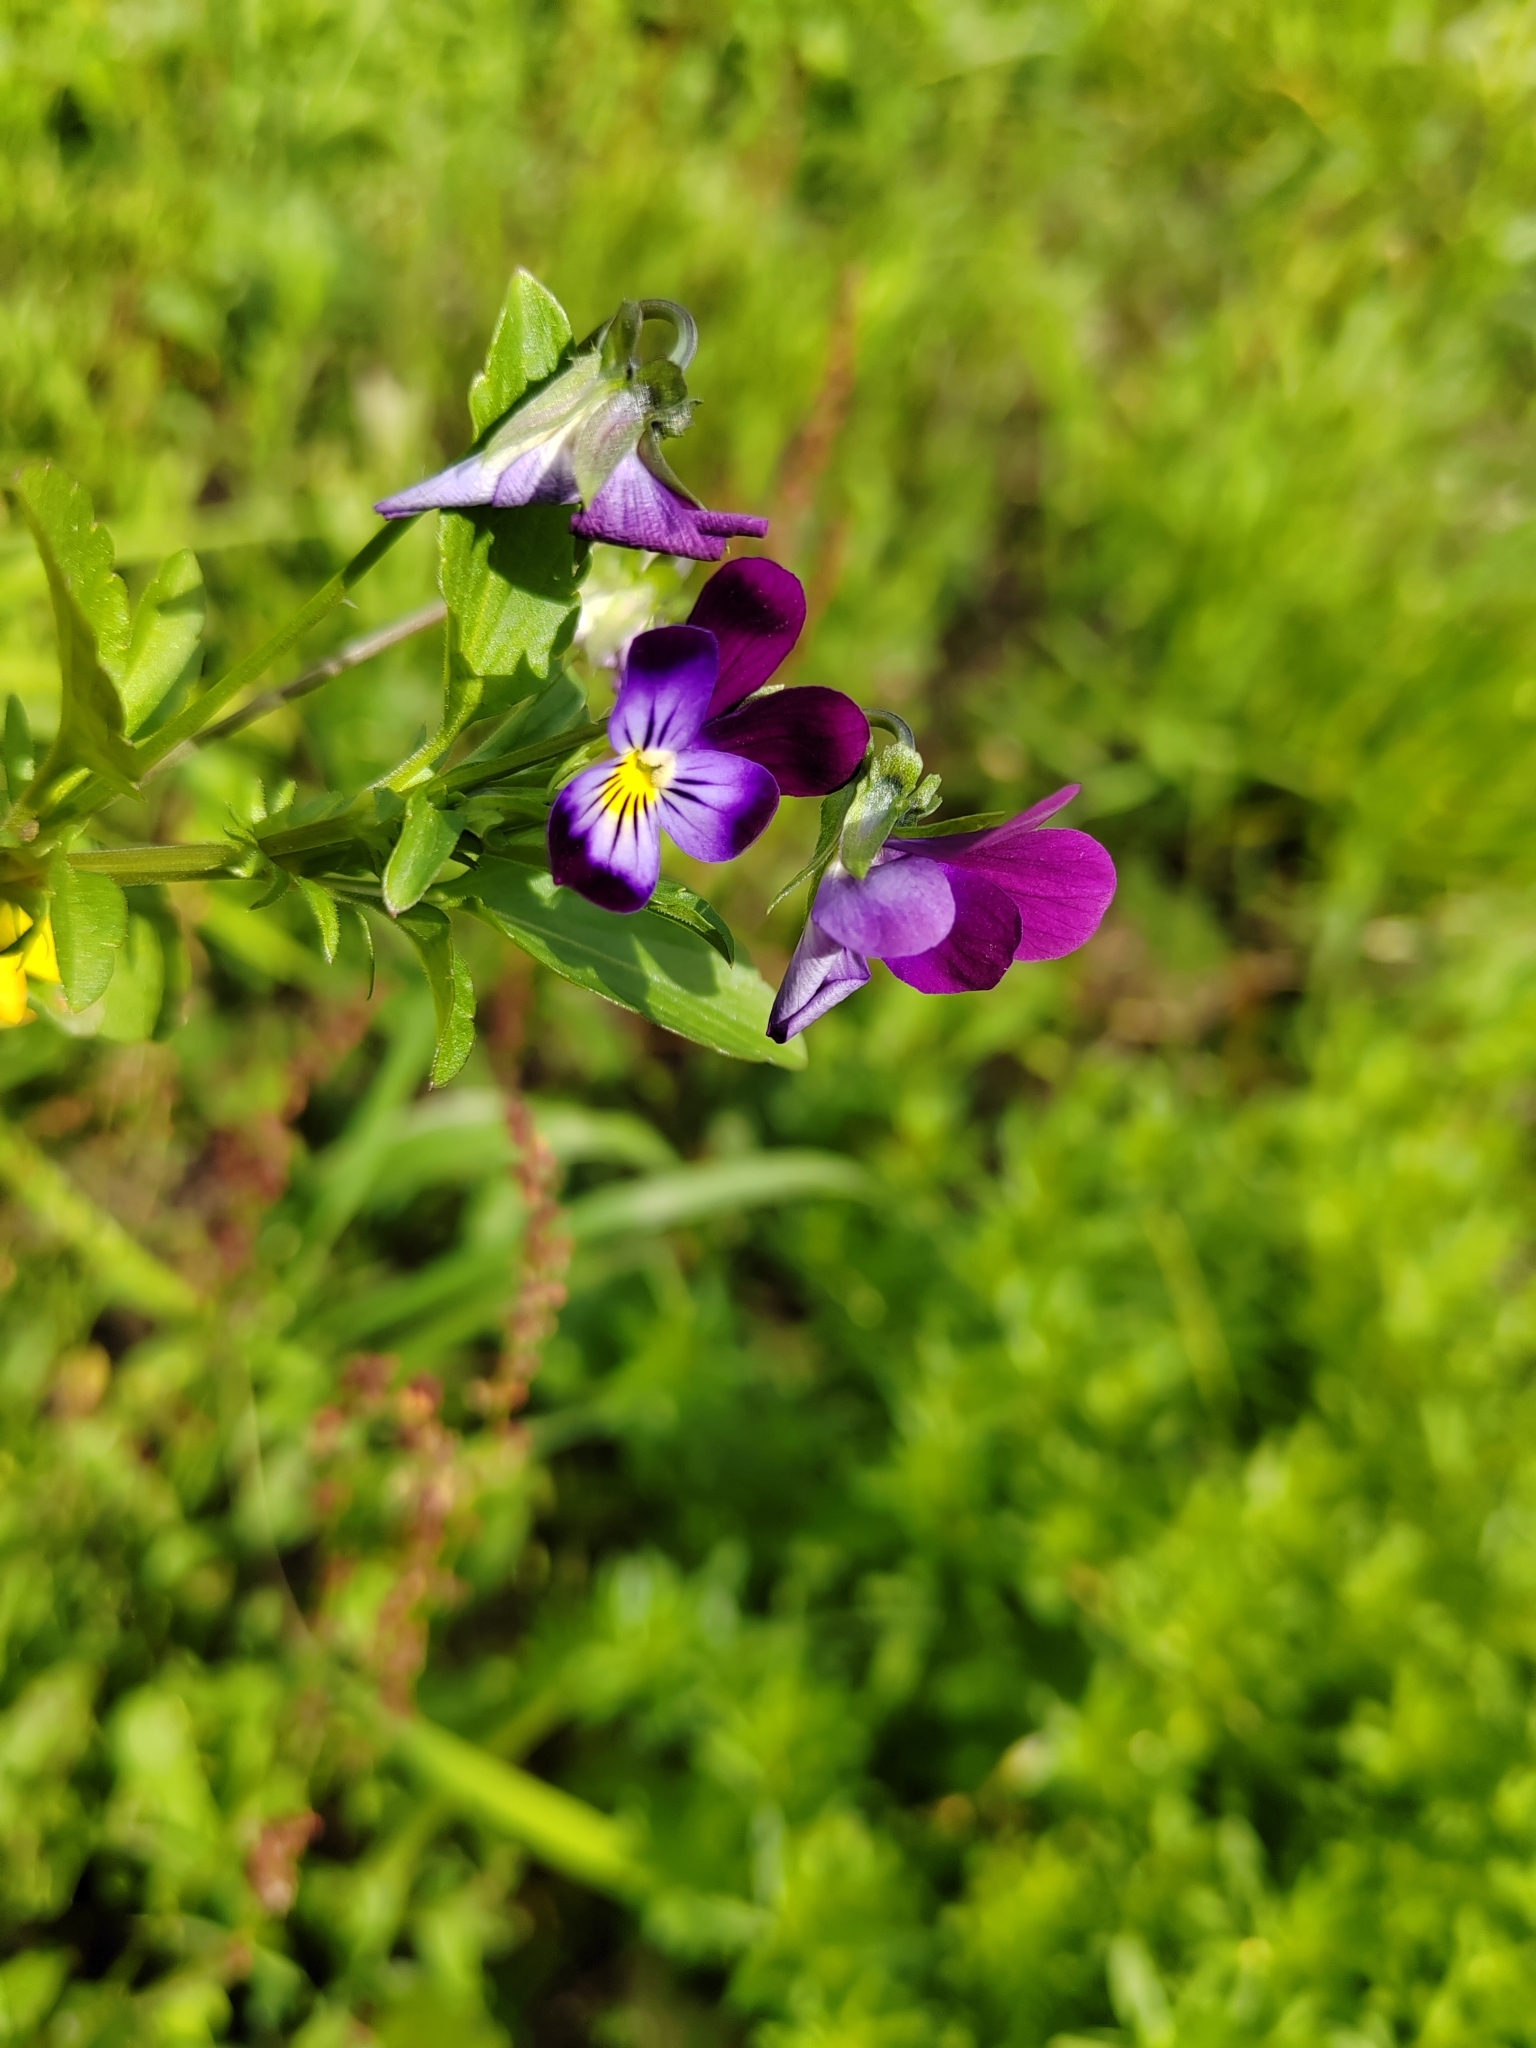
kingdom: Plantae
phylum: Tracheophyta
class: Magnoliopsida
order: Malpighiales
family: Violaceae
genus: Viola
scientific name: Viola wittrockiana
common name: Garden pansy
